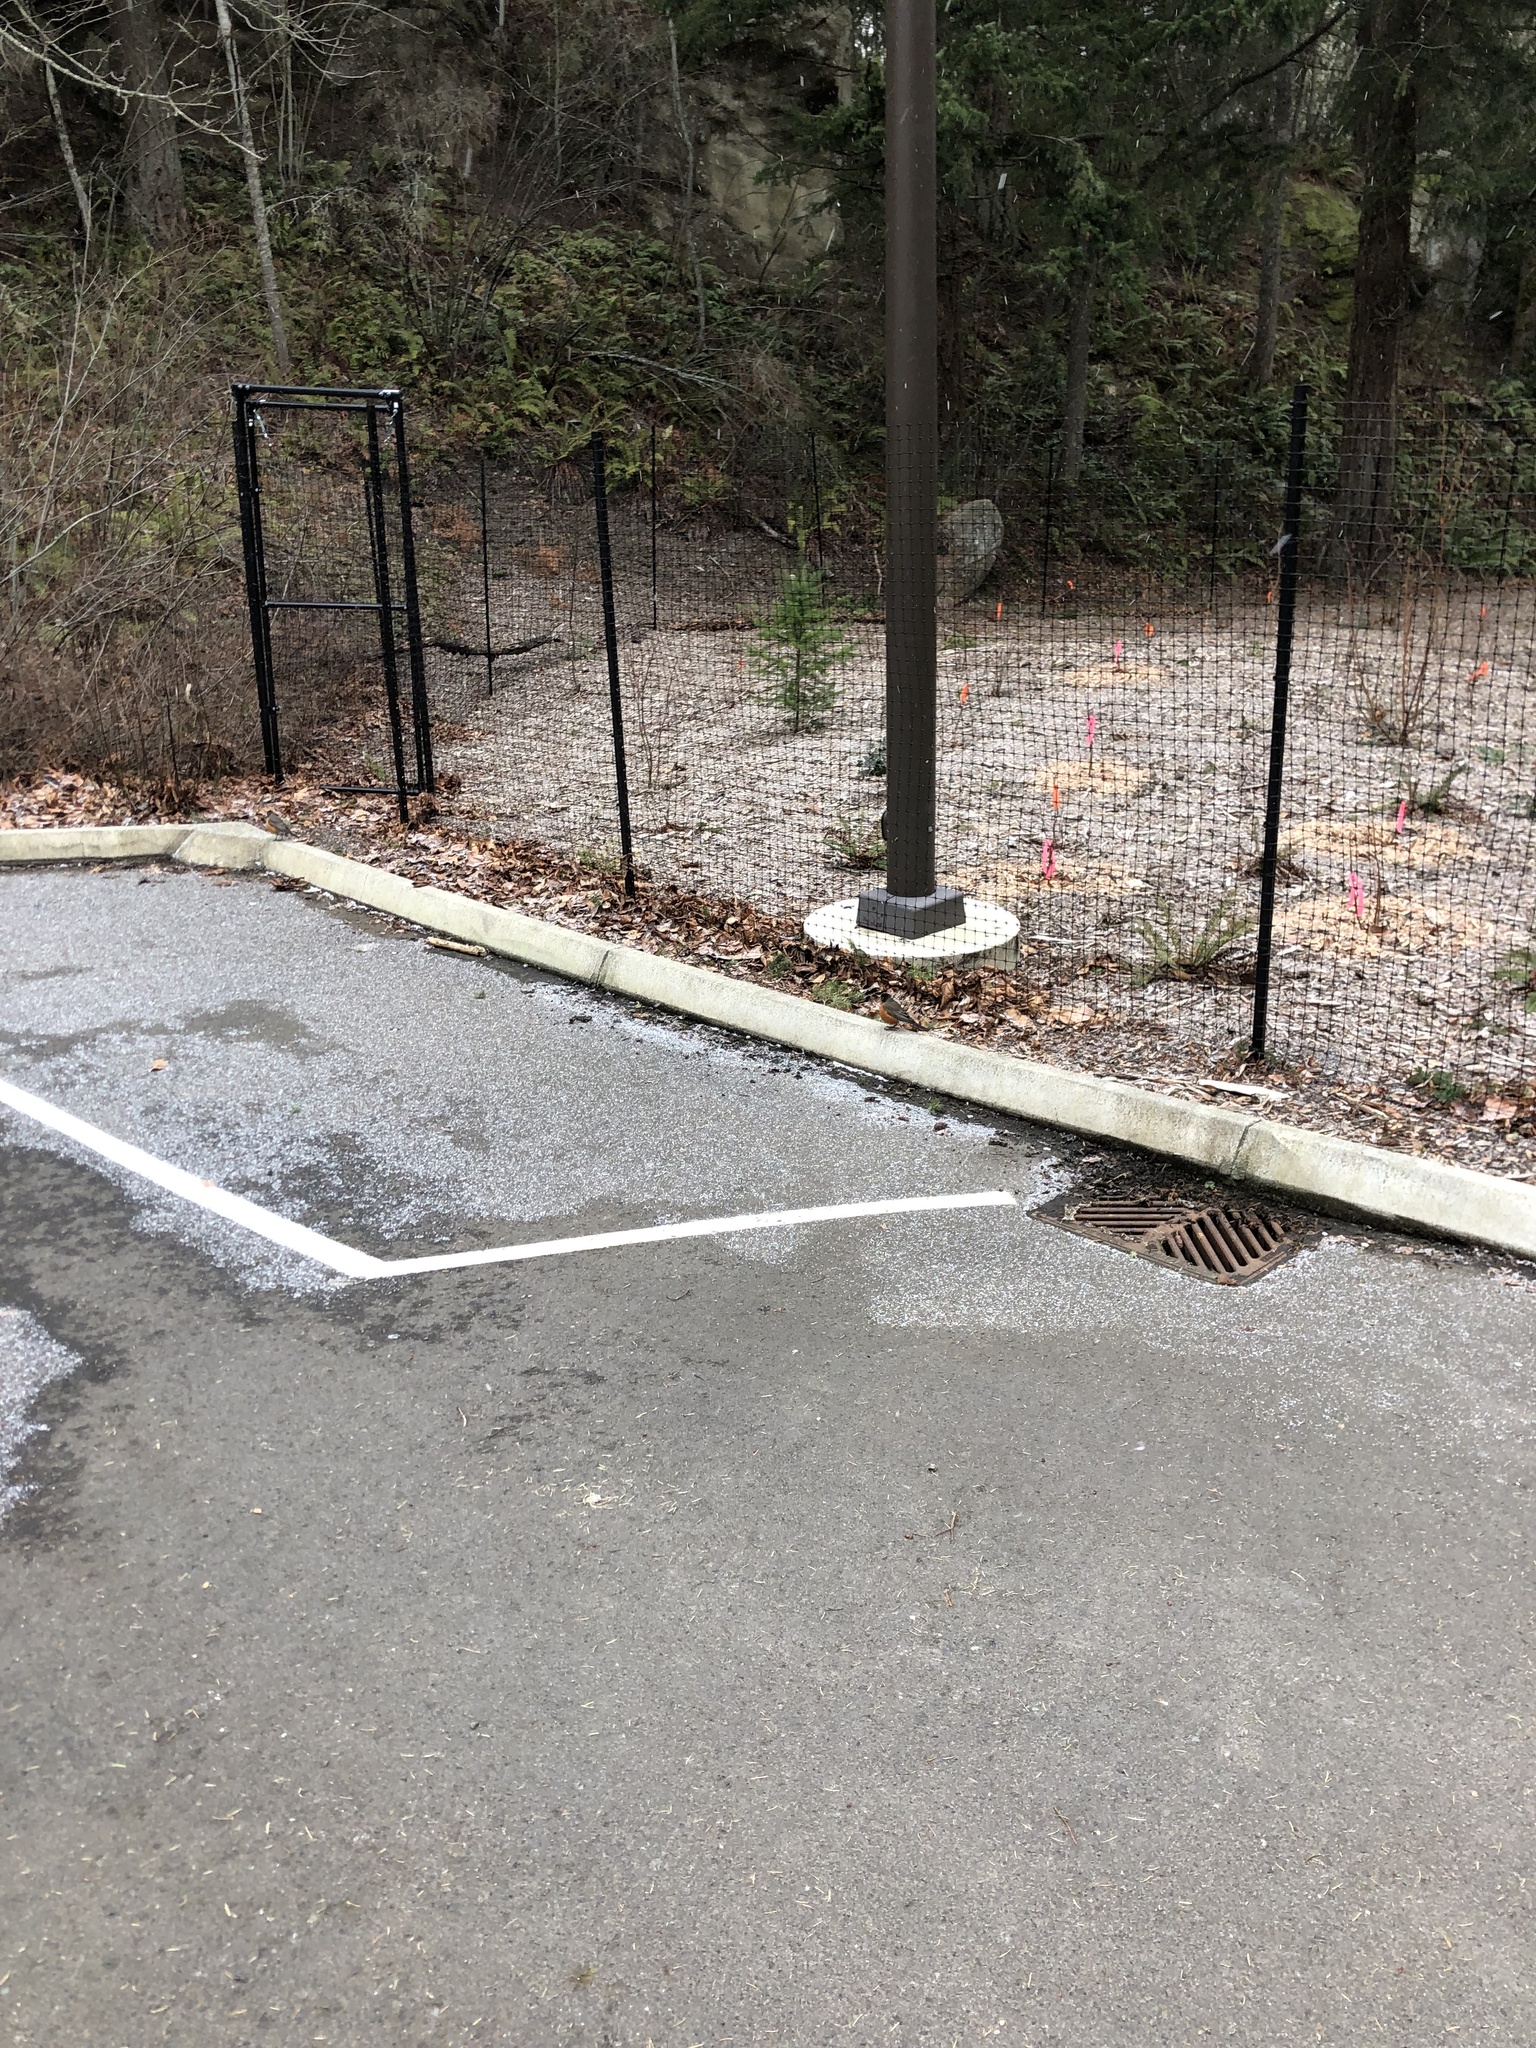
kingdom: Animalia
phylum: Chordata
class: Aves
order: Passeriformes
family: Turdidae
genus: Turdus
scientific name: Turdus migratorius
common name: American robin
